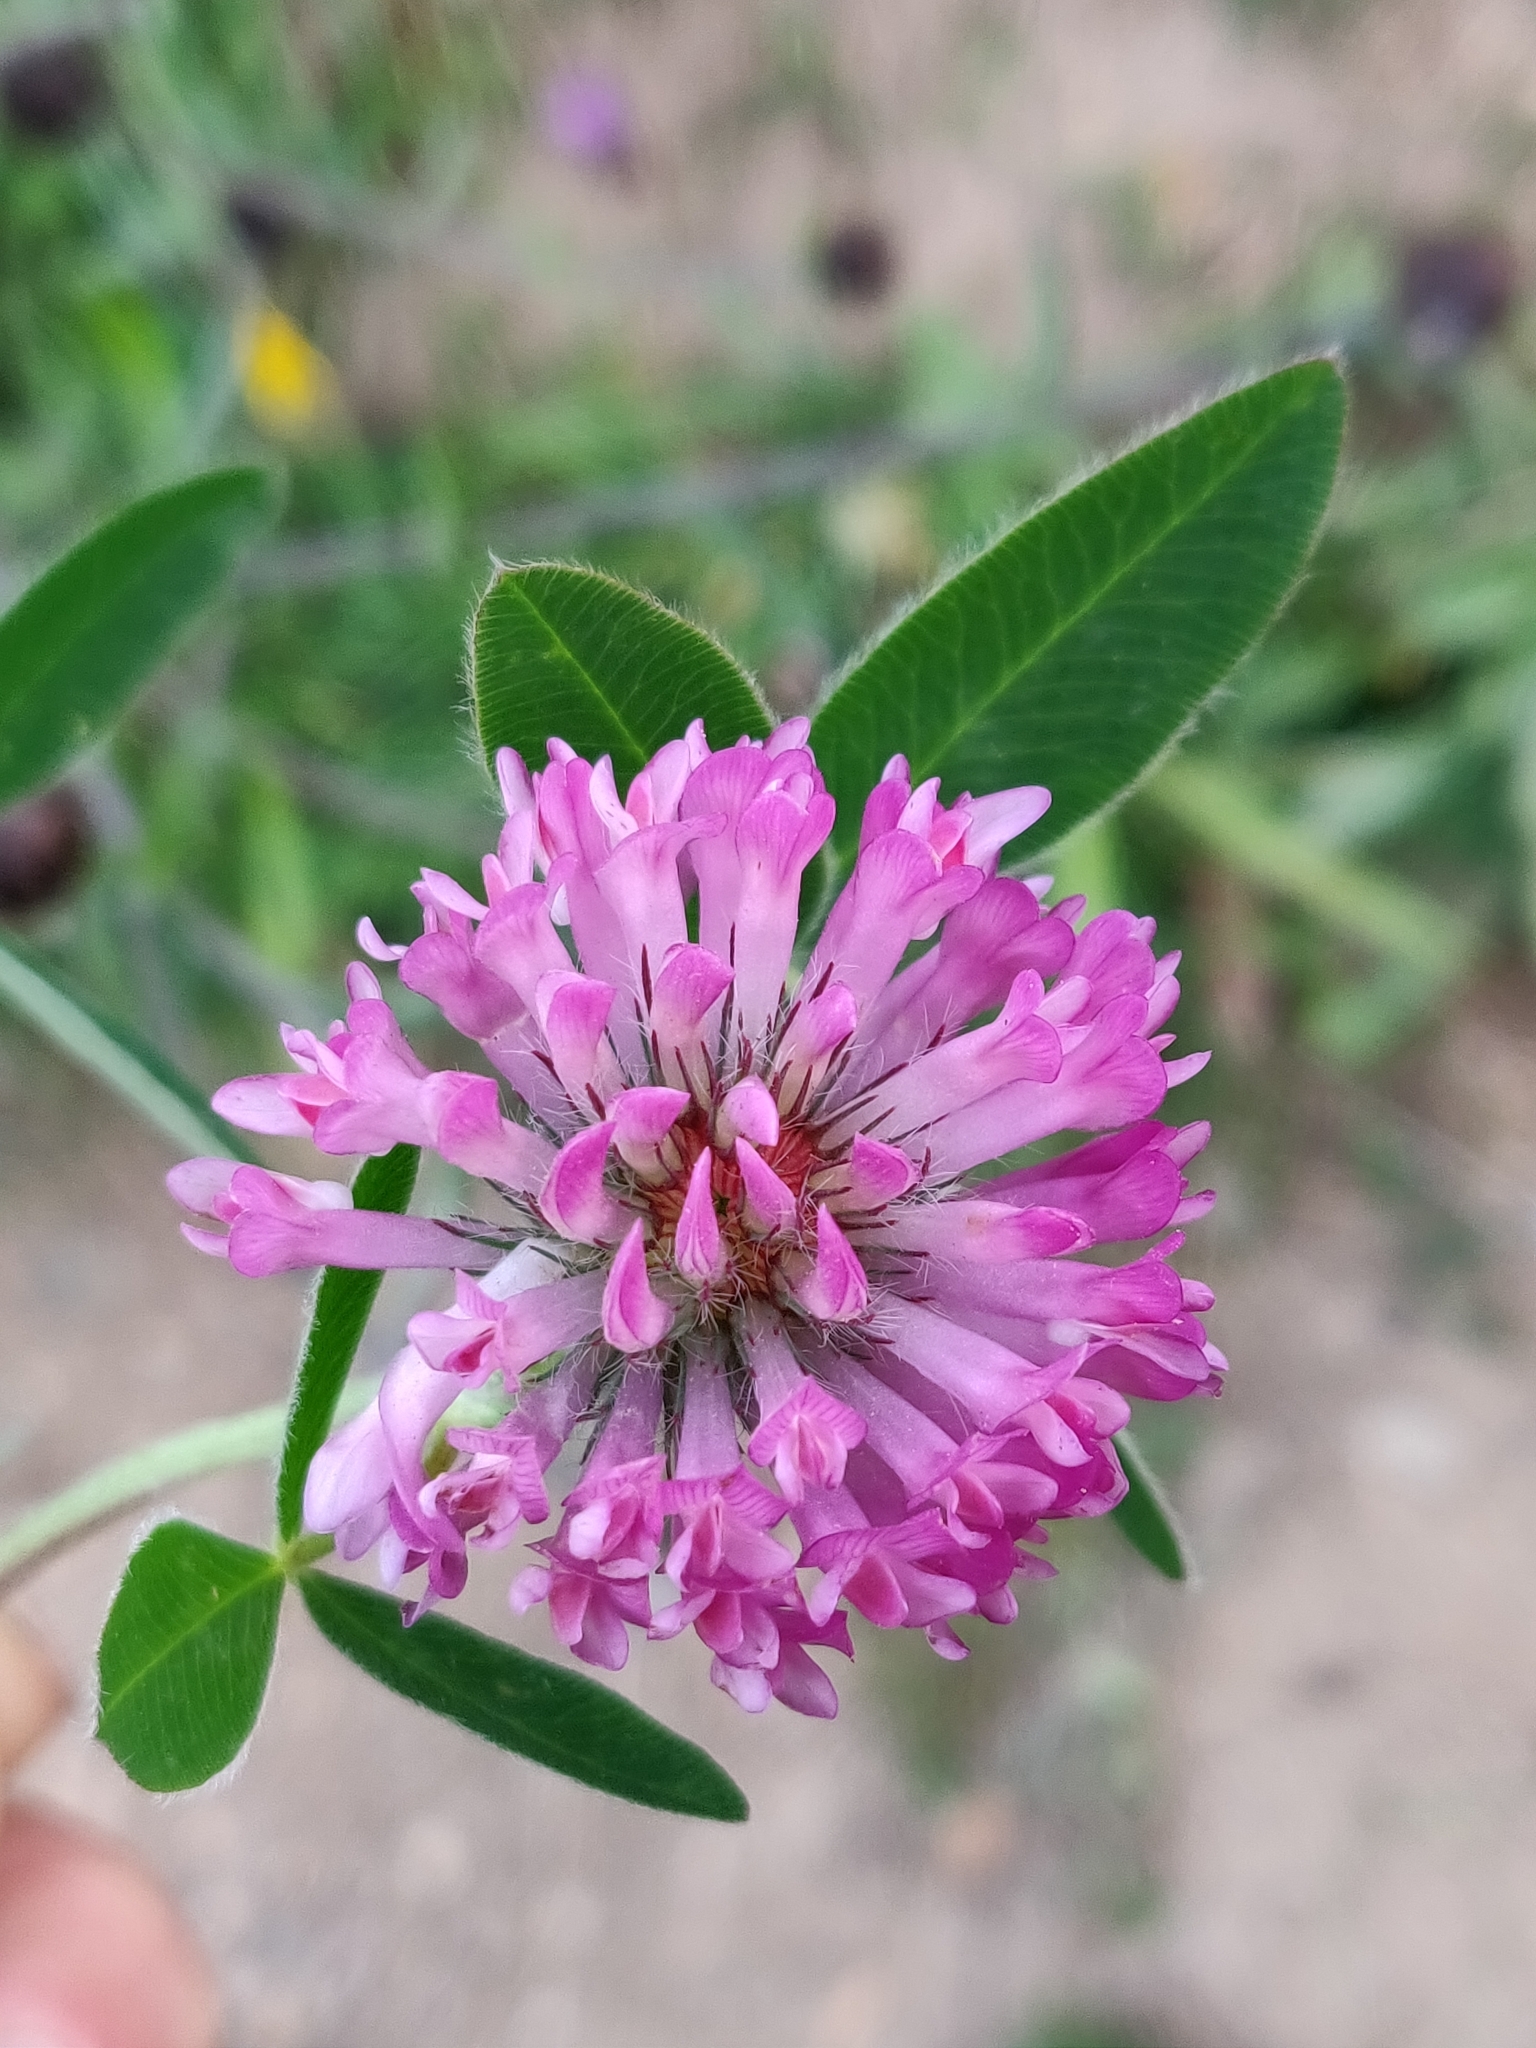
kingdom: Plantae
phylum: Tracheophyta
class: Magnoliopsida
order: Fabales
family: Fabaceae
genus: Trifolium
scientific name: Trifolium medium
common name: Zigzag clover
